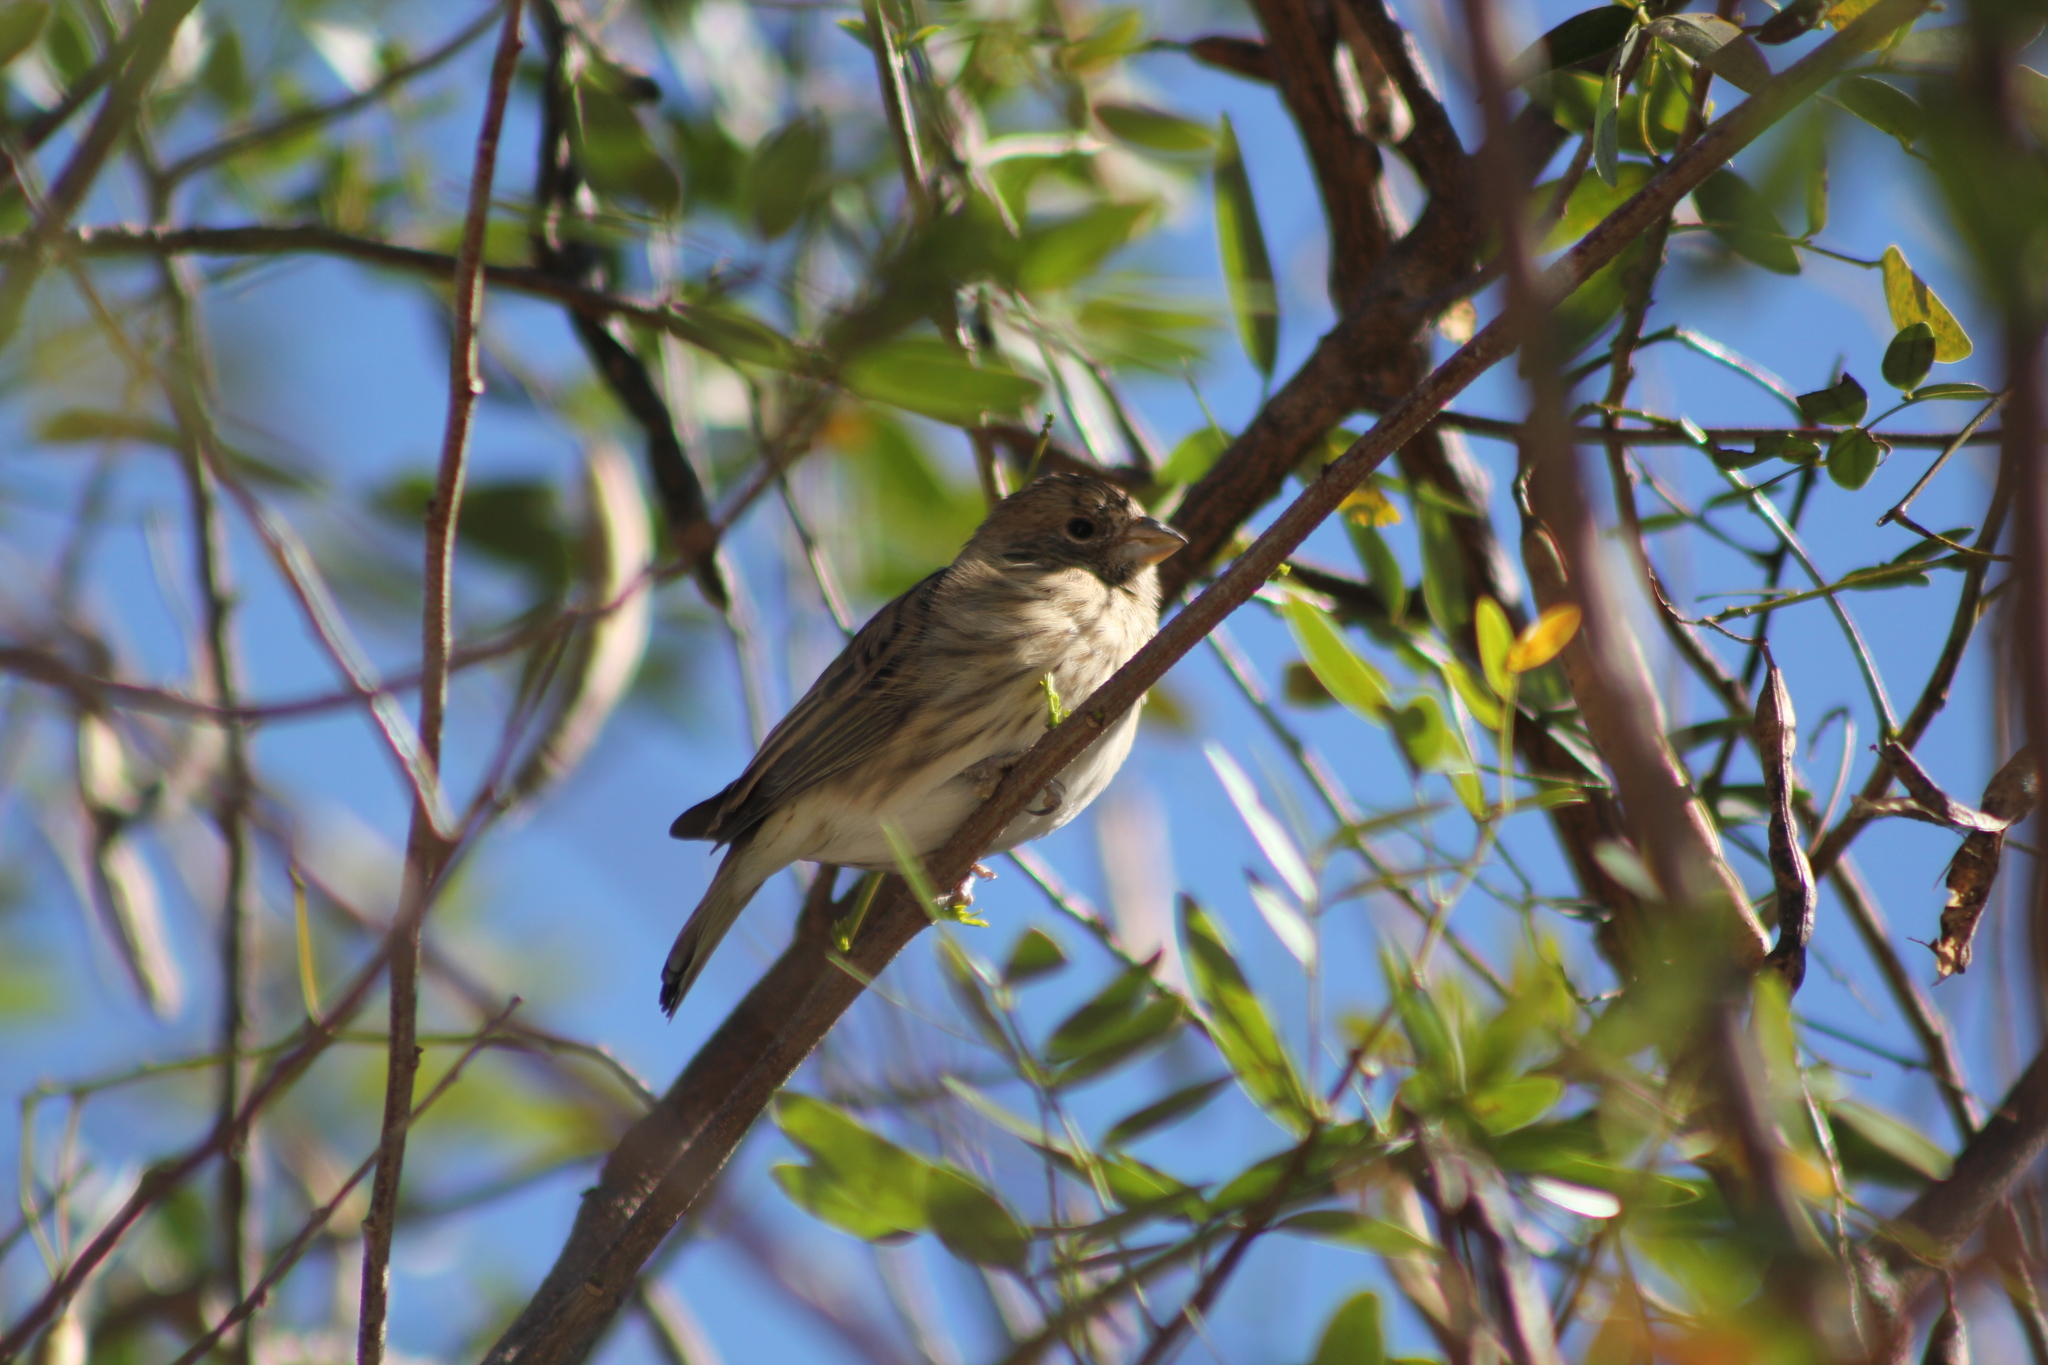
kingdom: Animalia
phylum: Chordata
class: Aves
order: Passeriformes
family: Thraupidae
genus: Sicalis
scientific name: Sicalis flaveola
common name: Saffron finch
